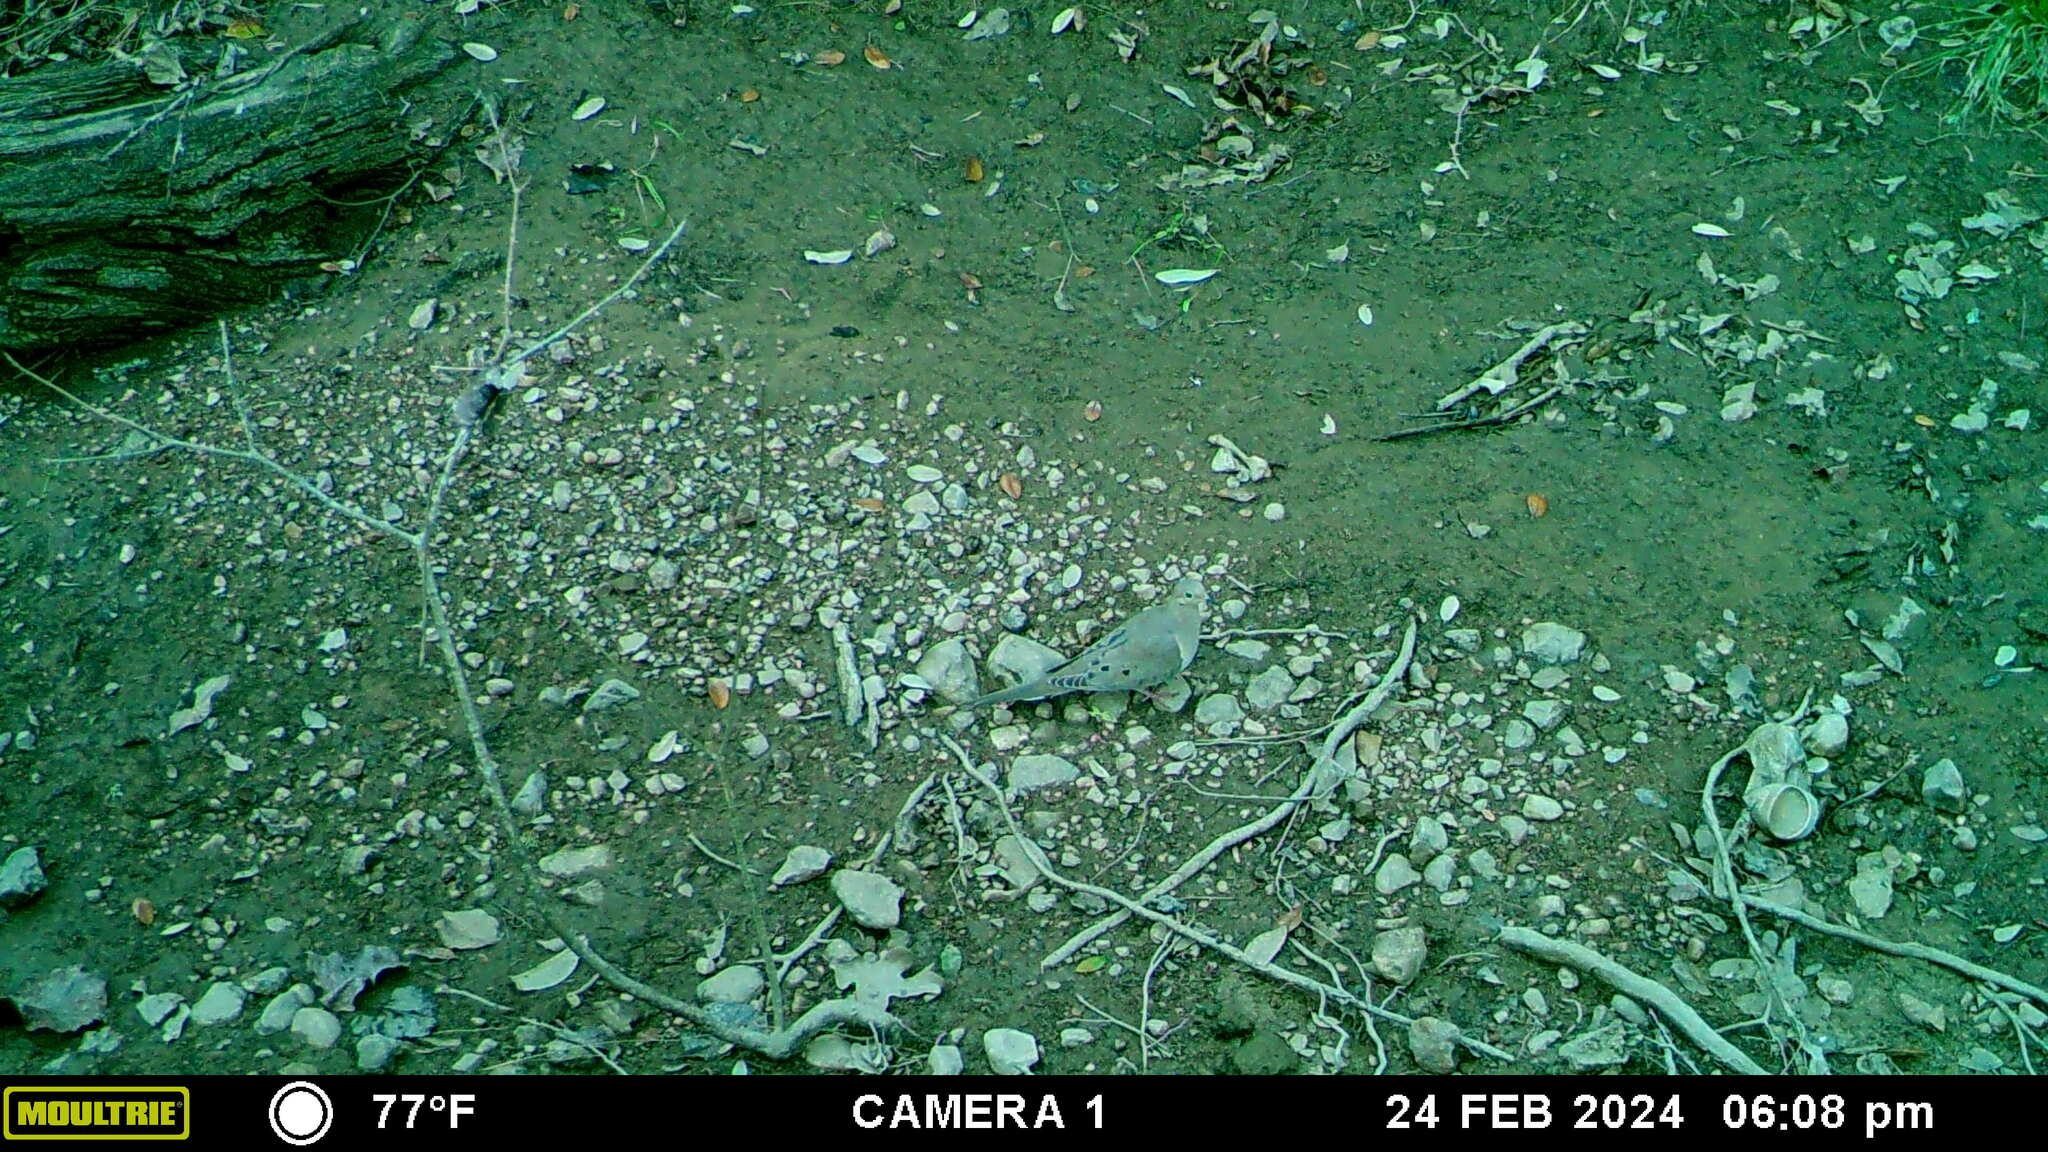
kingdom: Animalia
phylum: Chordata
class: Aves
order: Columbiformes
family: Columbidae
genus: Zenaida
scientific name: Zenaida macroura
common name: Mourning dove
